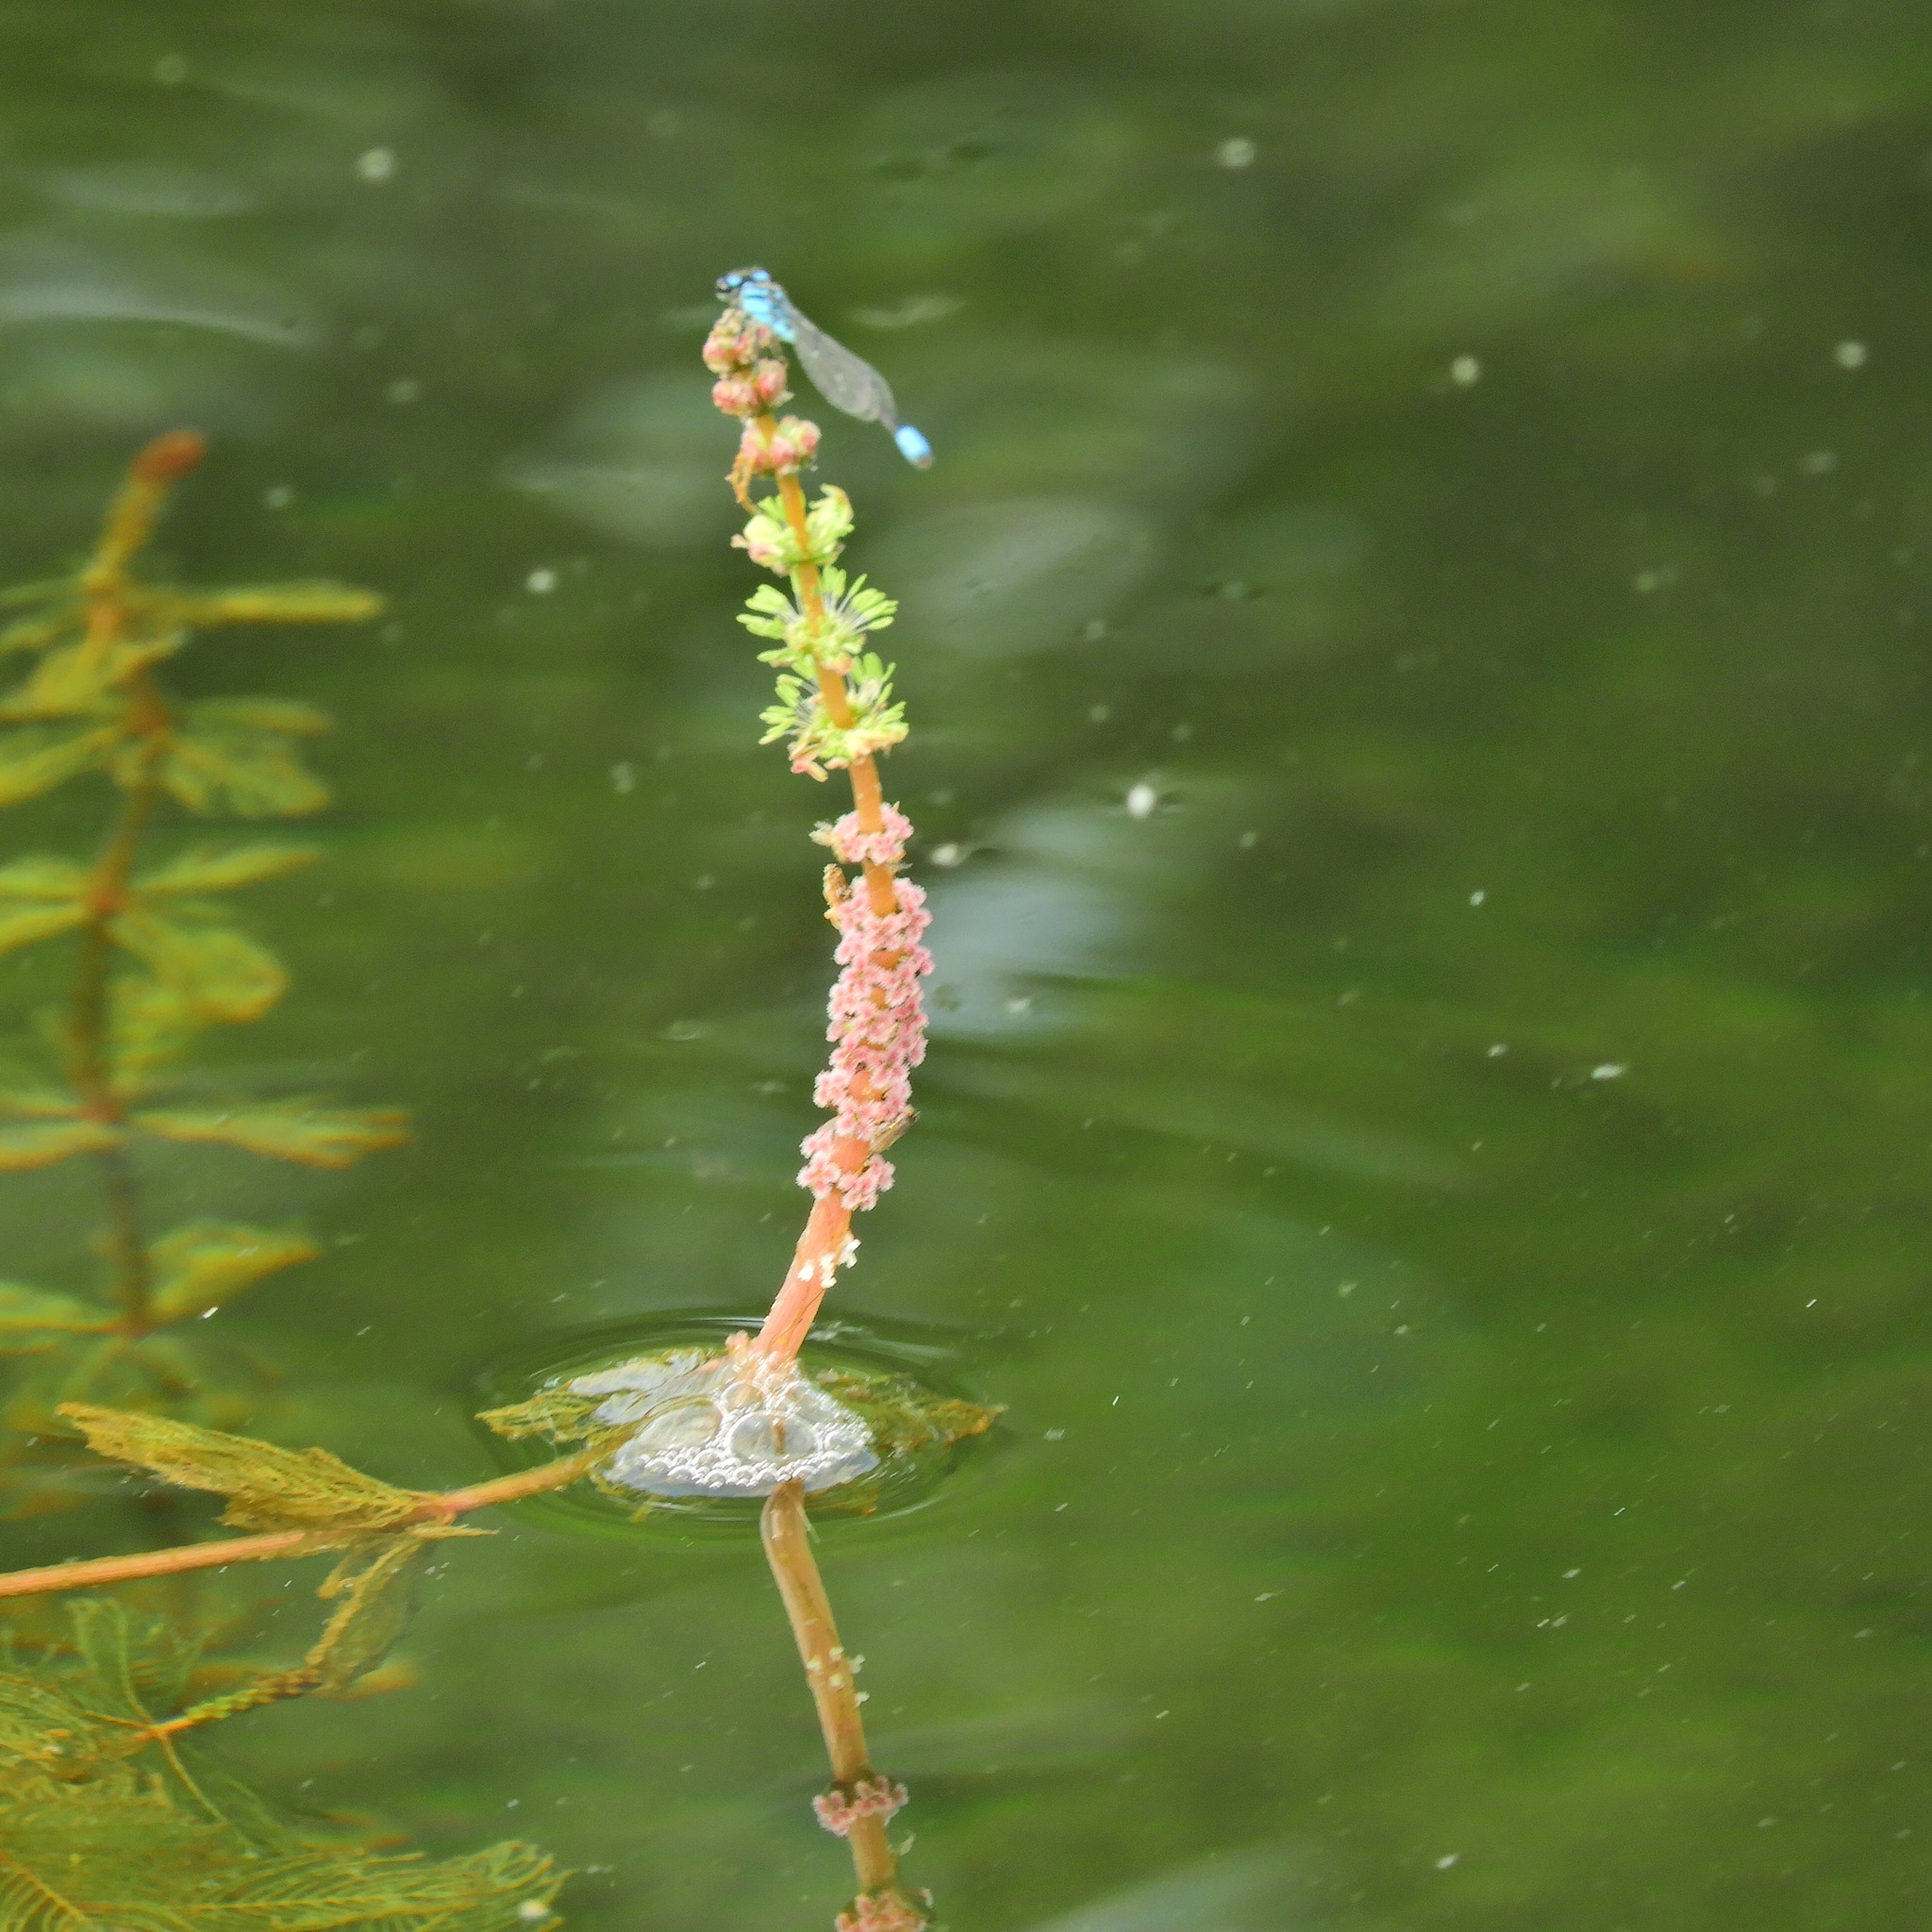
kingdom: Plantae
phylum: Tracheophyta
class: Magnoliopsida
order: Saxifragales
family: Haloragaceae
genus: Myriophyllum
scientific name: Myriophyllum spicatum
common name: Spiked water-milfoil
